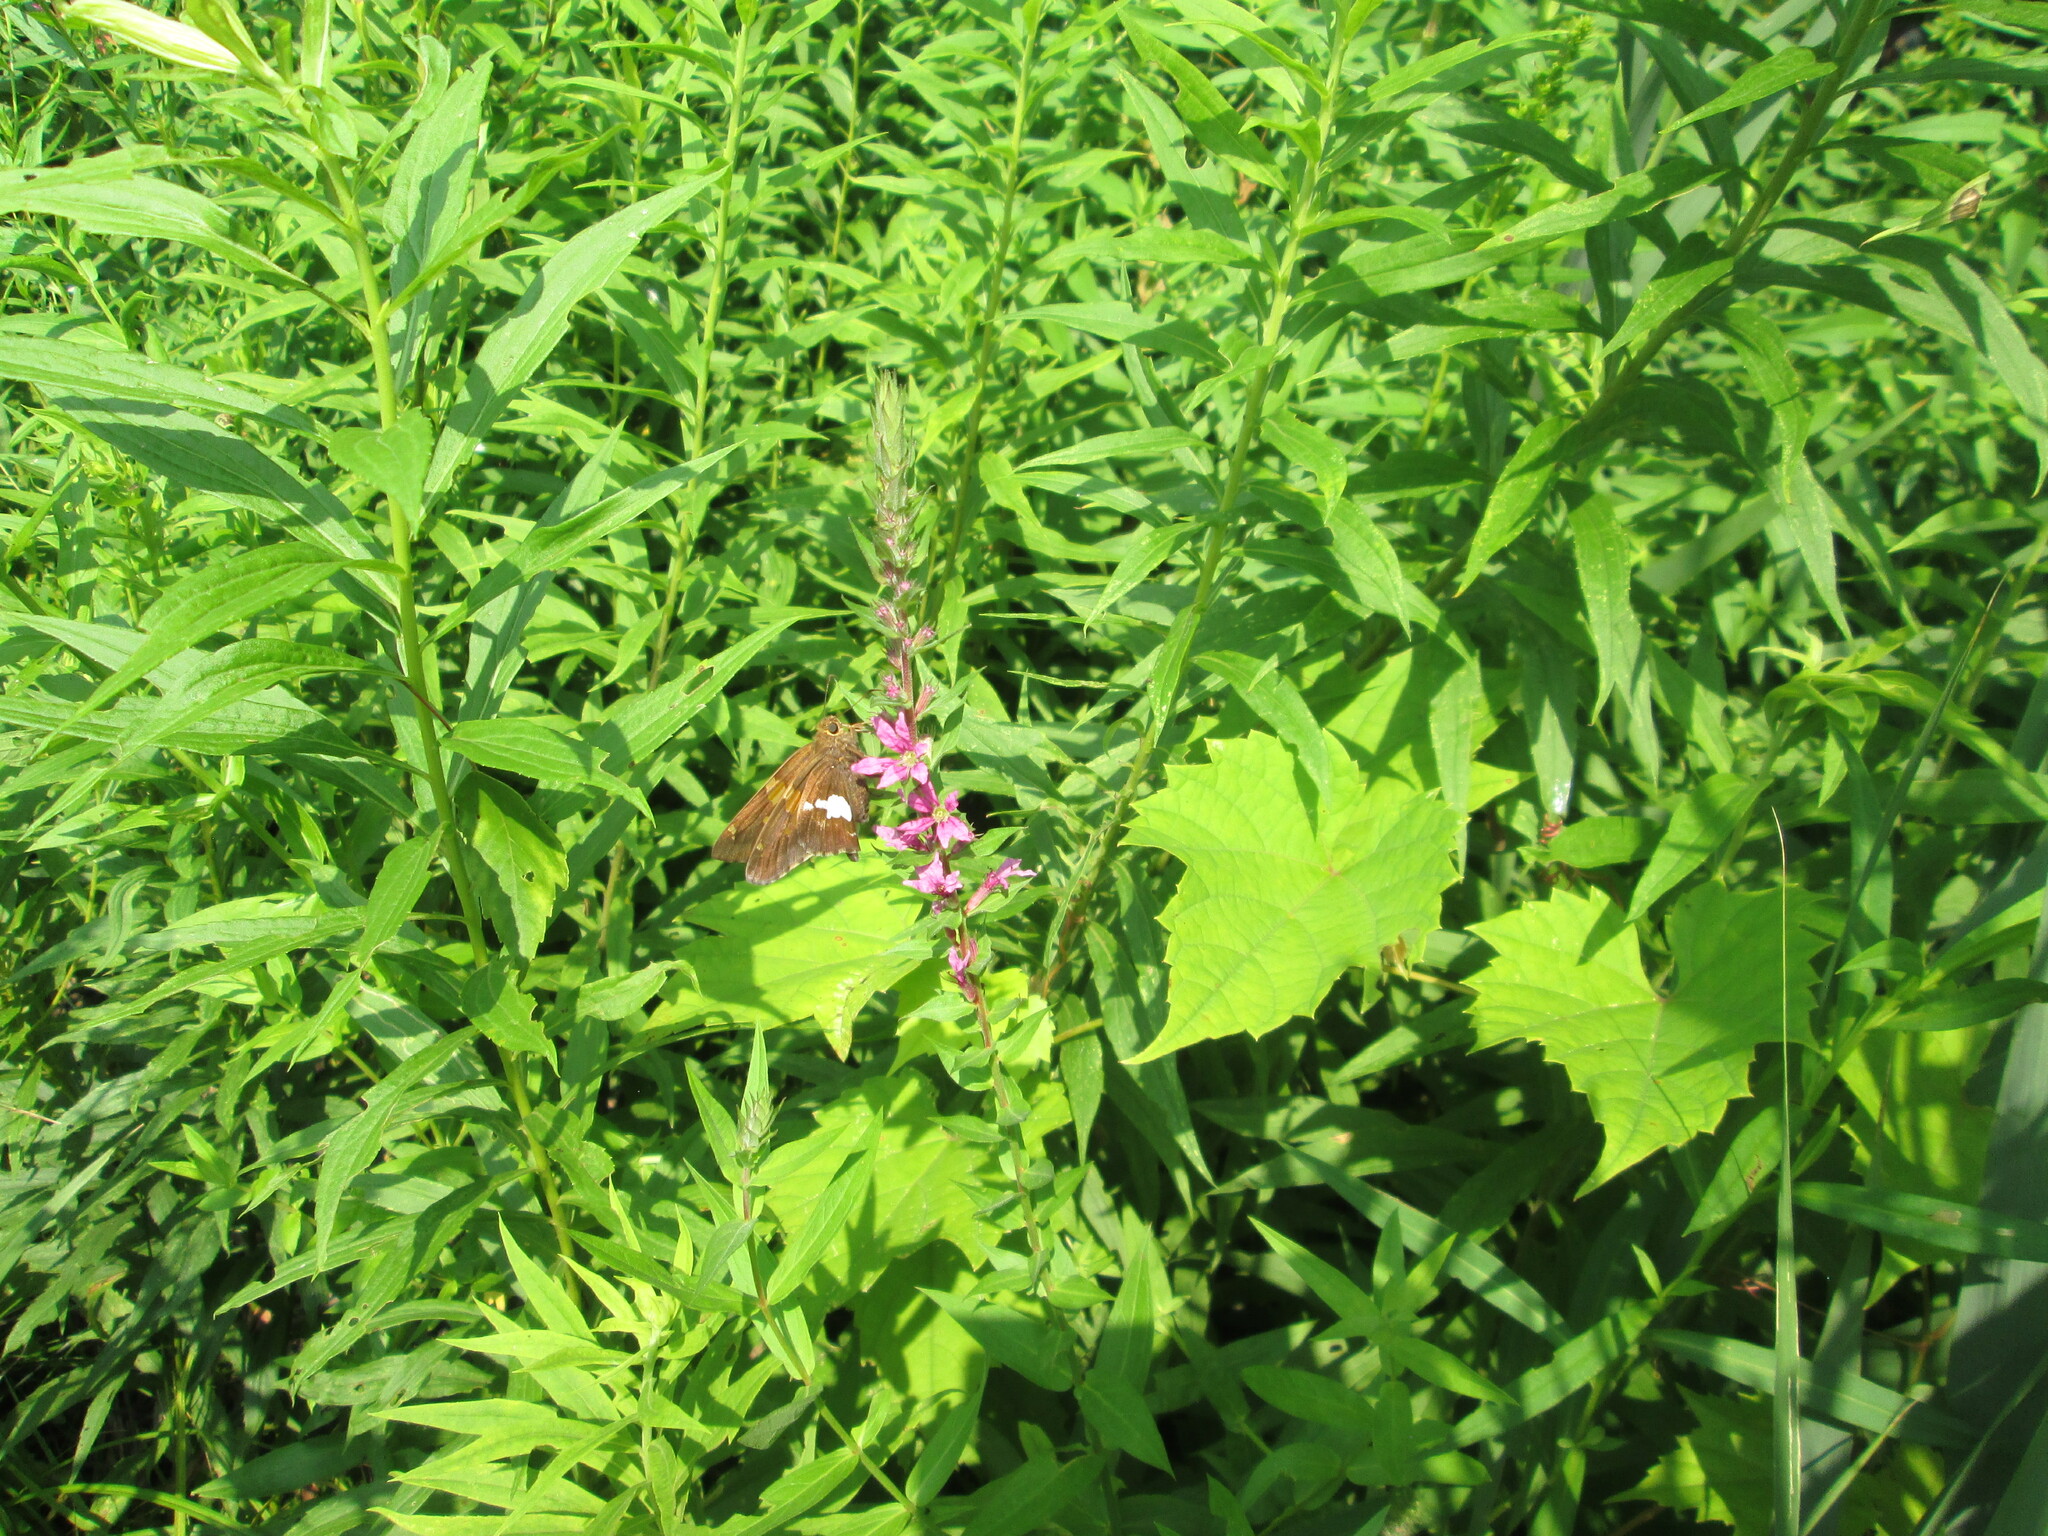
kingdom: Animalia
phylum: Arthropoda
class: Insecta
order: Lepidoptera
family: Hesperiidae
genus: Epargyreus
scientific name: Epargyreus clarus
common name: Silver-spotted skipper
